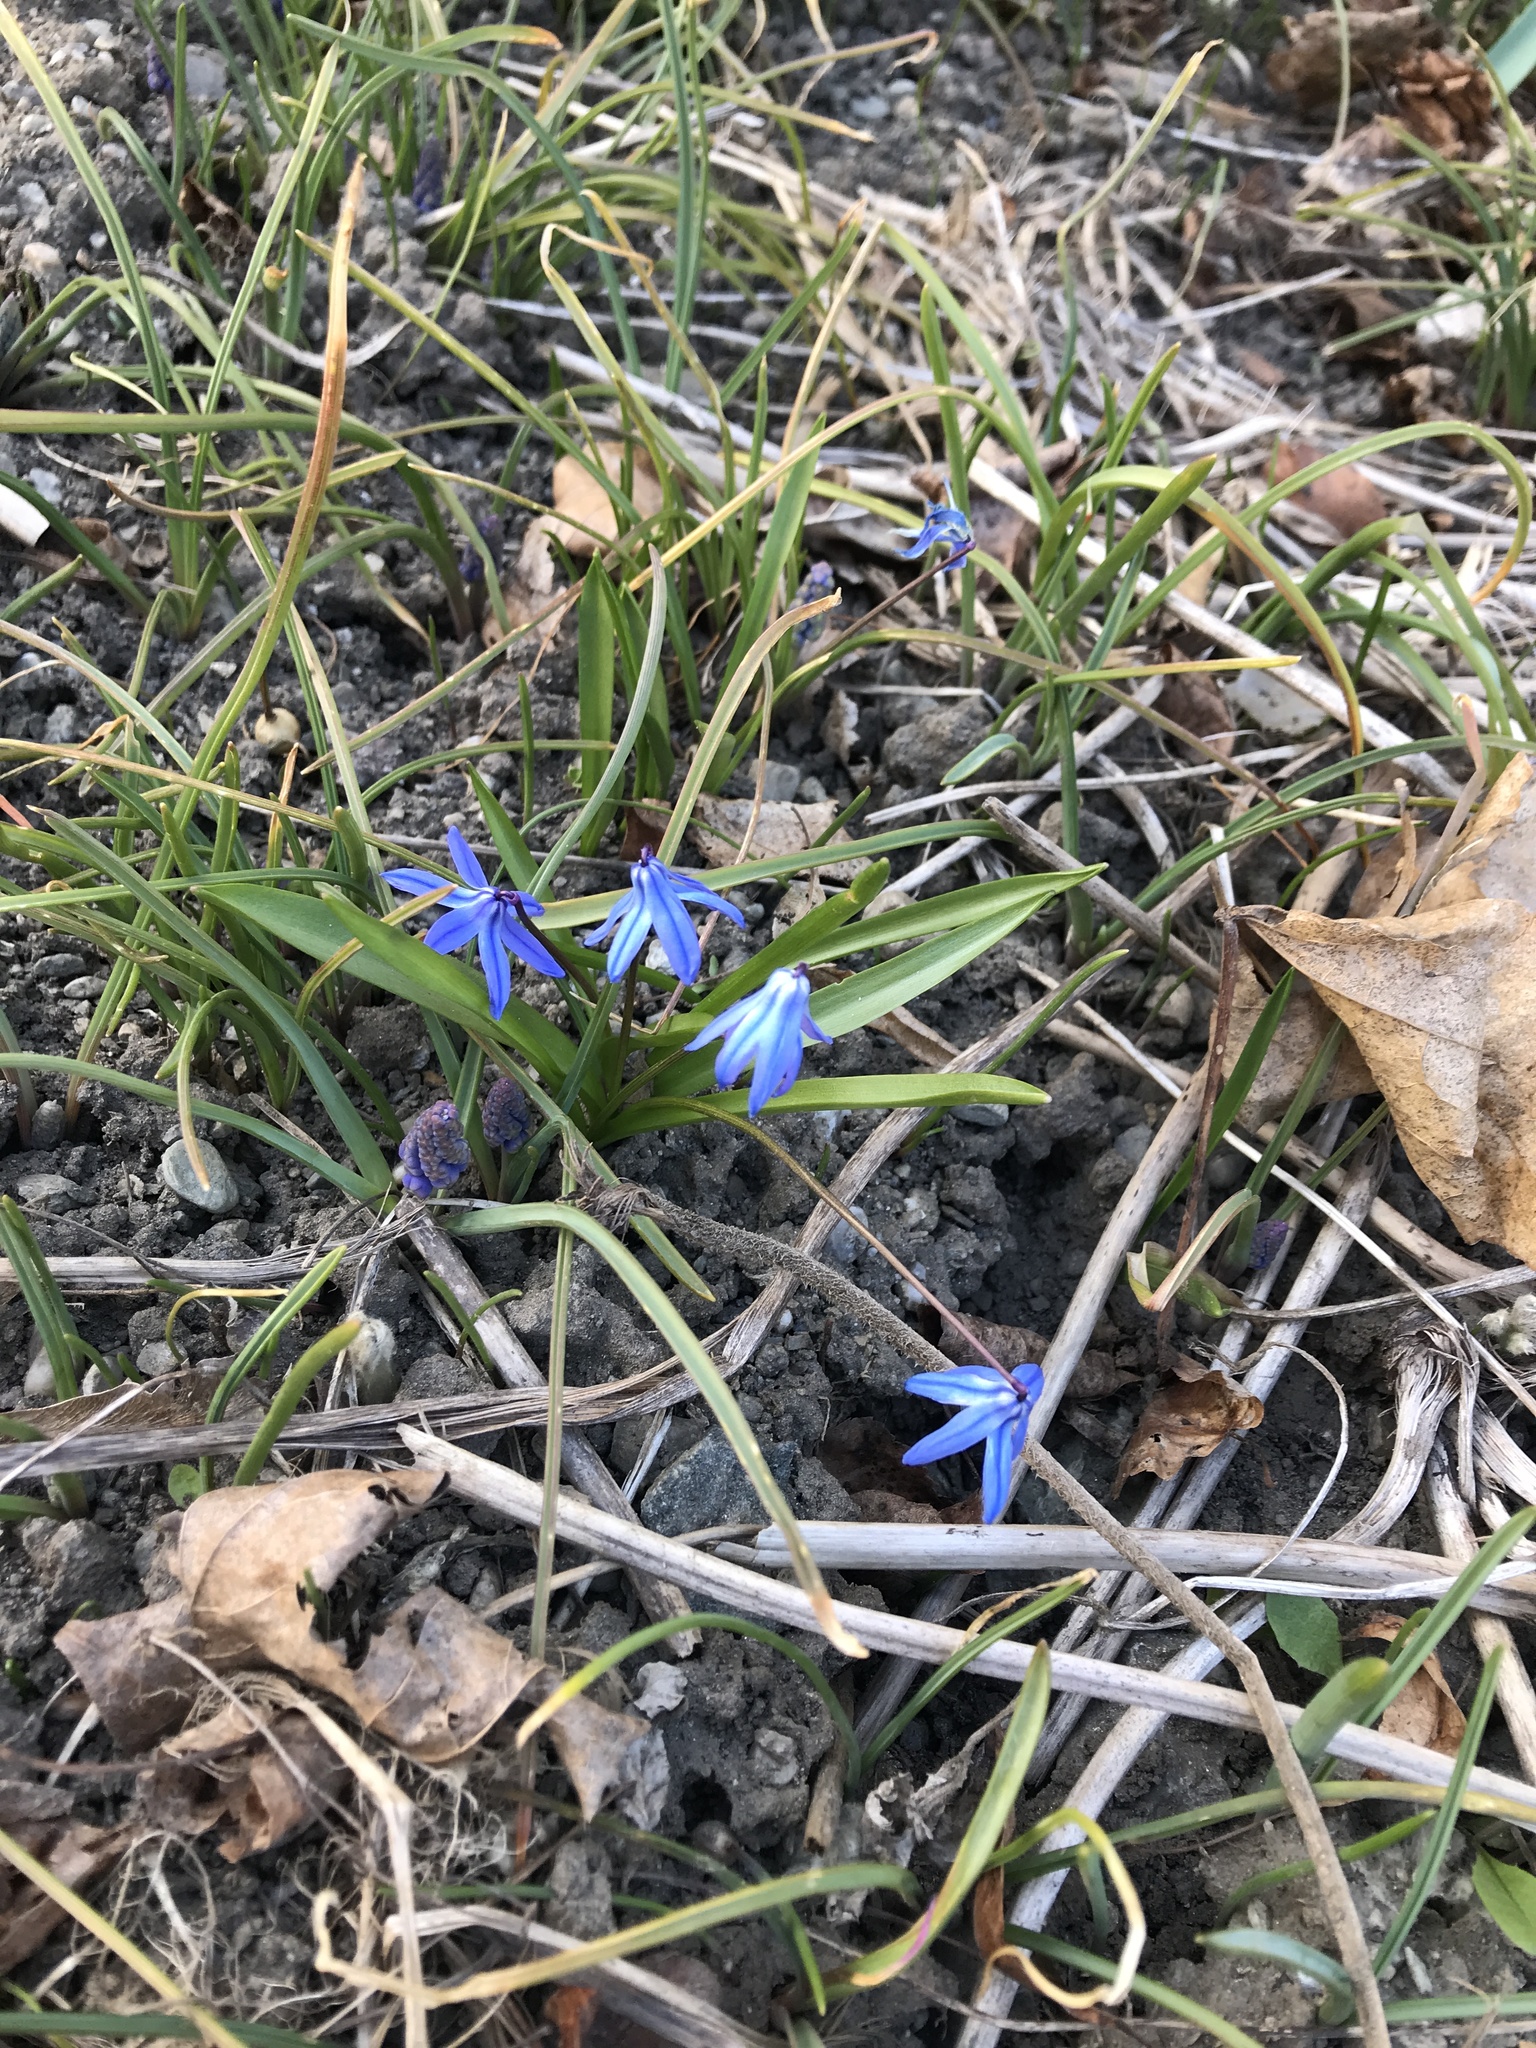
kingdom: Plantae
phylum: Tracheophyta
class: Liliopsida
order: Asparagales
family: Asparagaceae
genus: Scilla
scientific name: Scilla siberica
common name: Siberian squill
